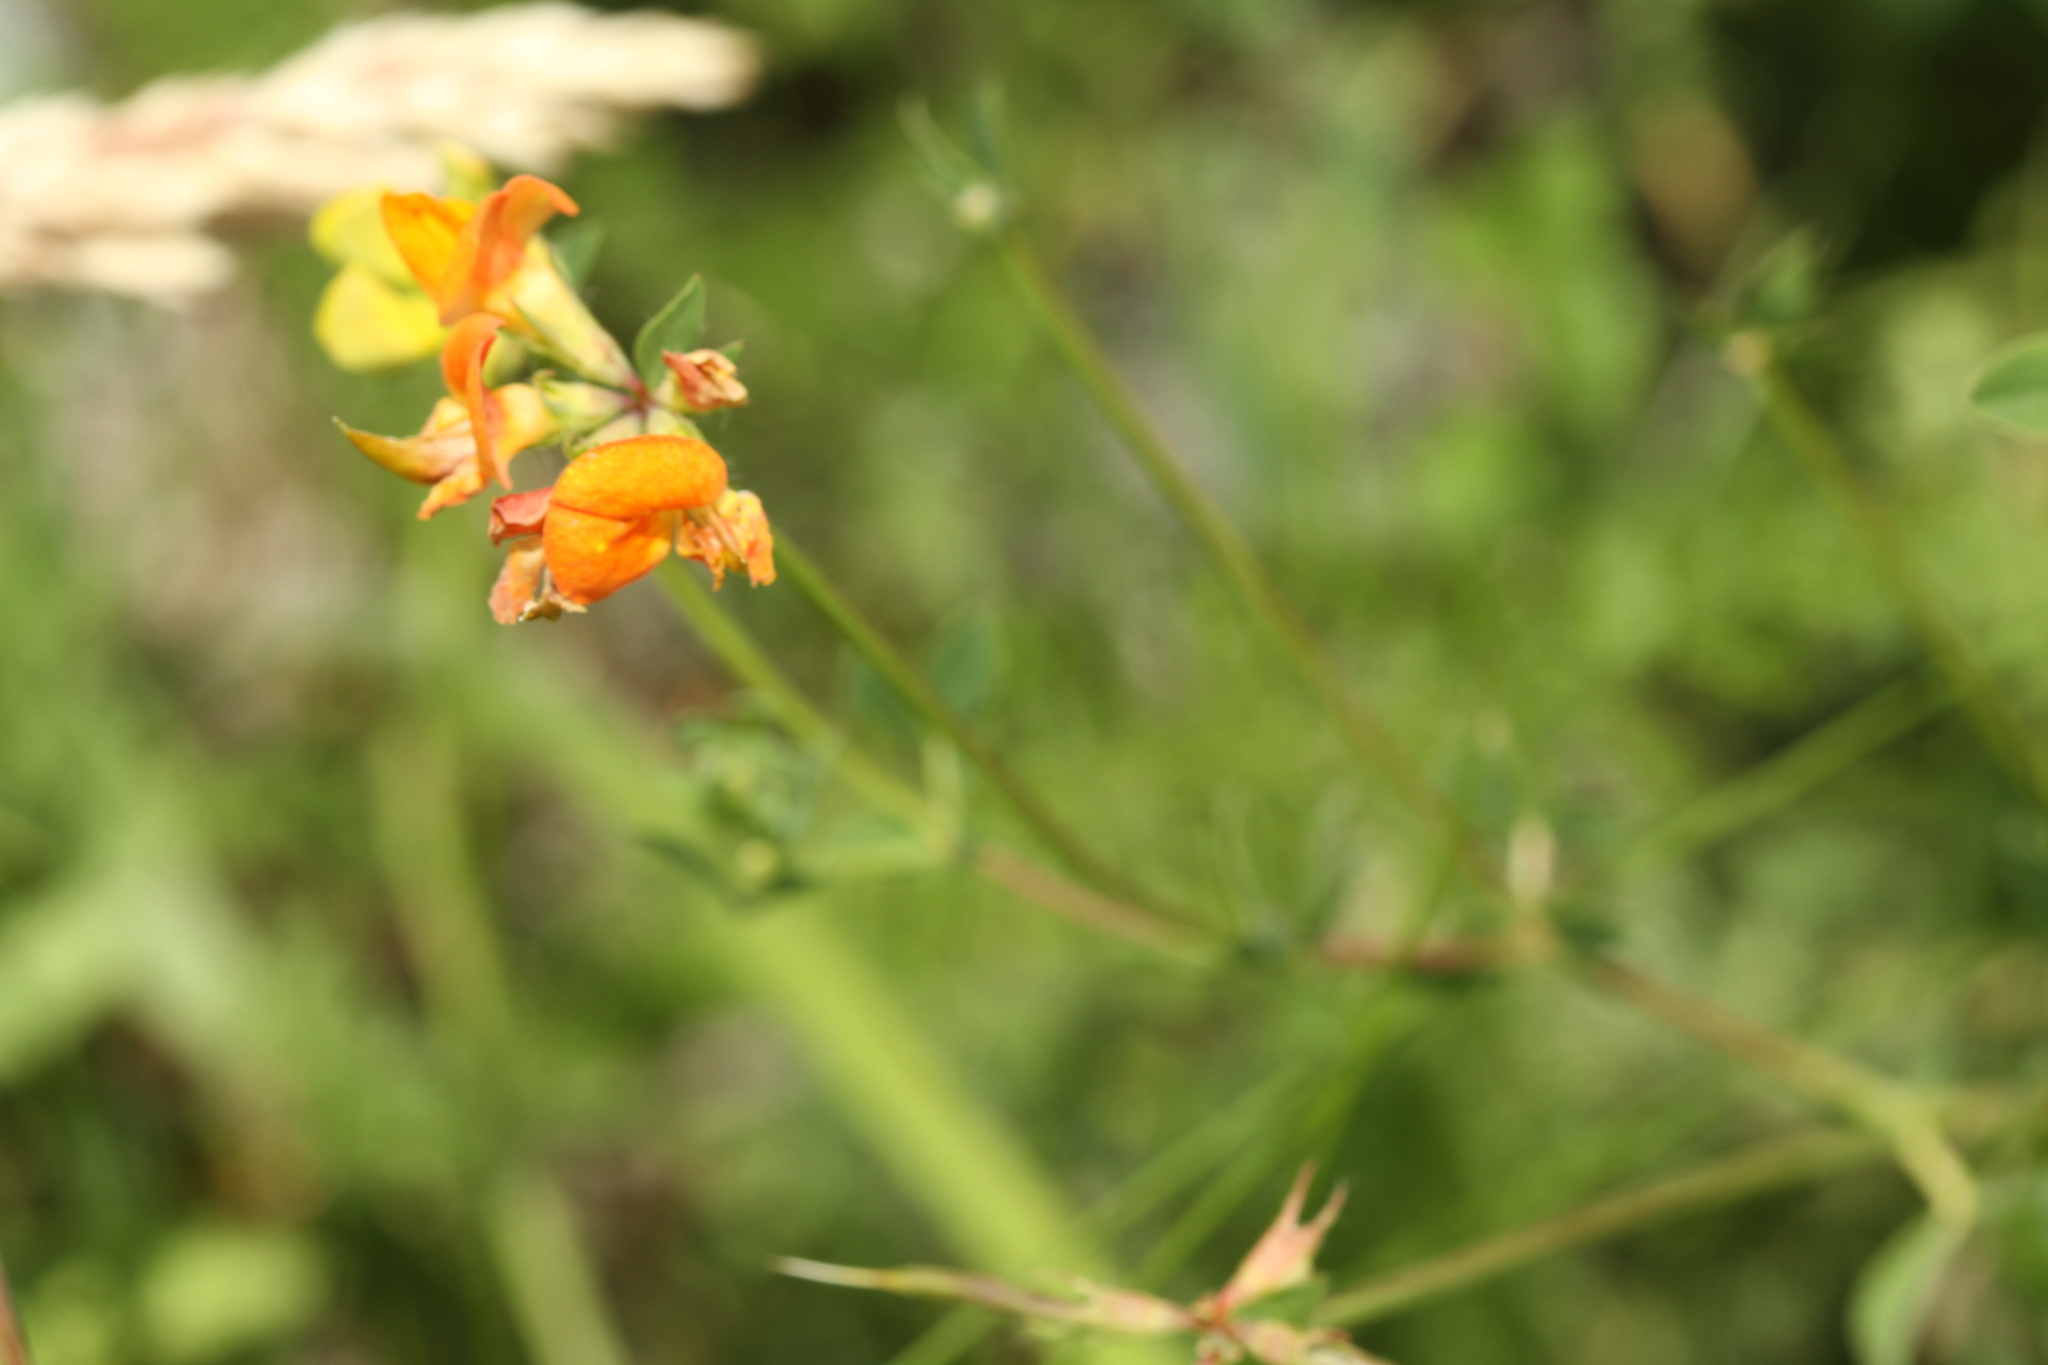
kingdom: Plantae
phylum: Tracheophyta
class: Magnoliopsida
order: Fabales
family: Fabaceae
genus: Lotus
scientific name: Lotus corniculatus
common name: Common bird's-foot-trefoil
